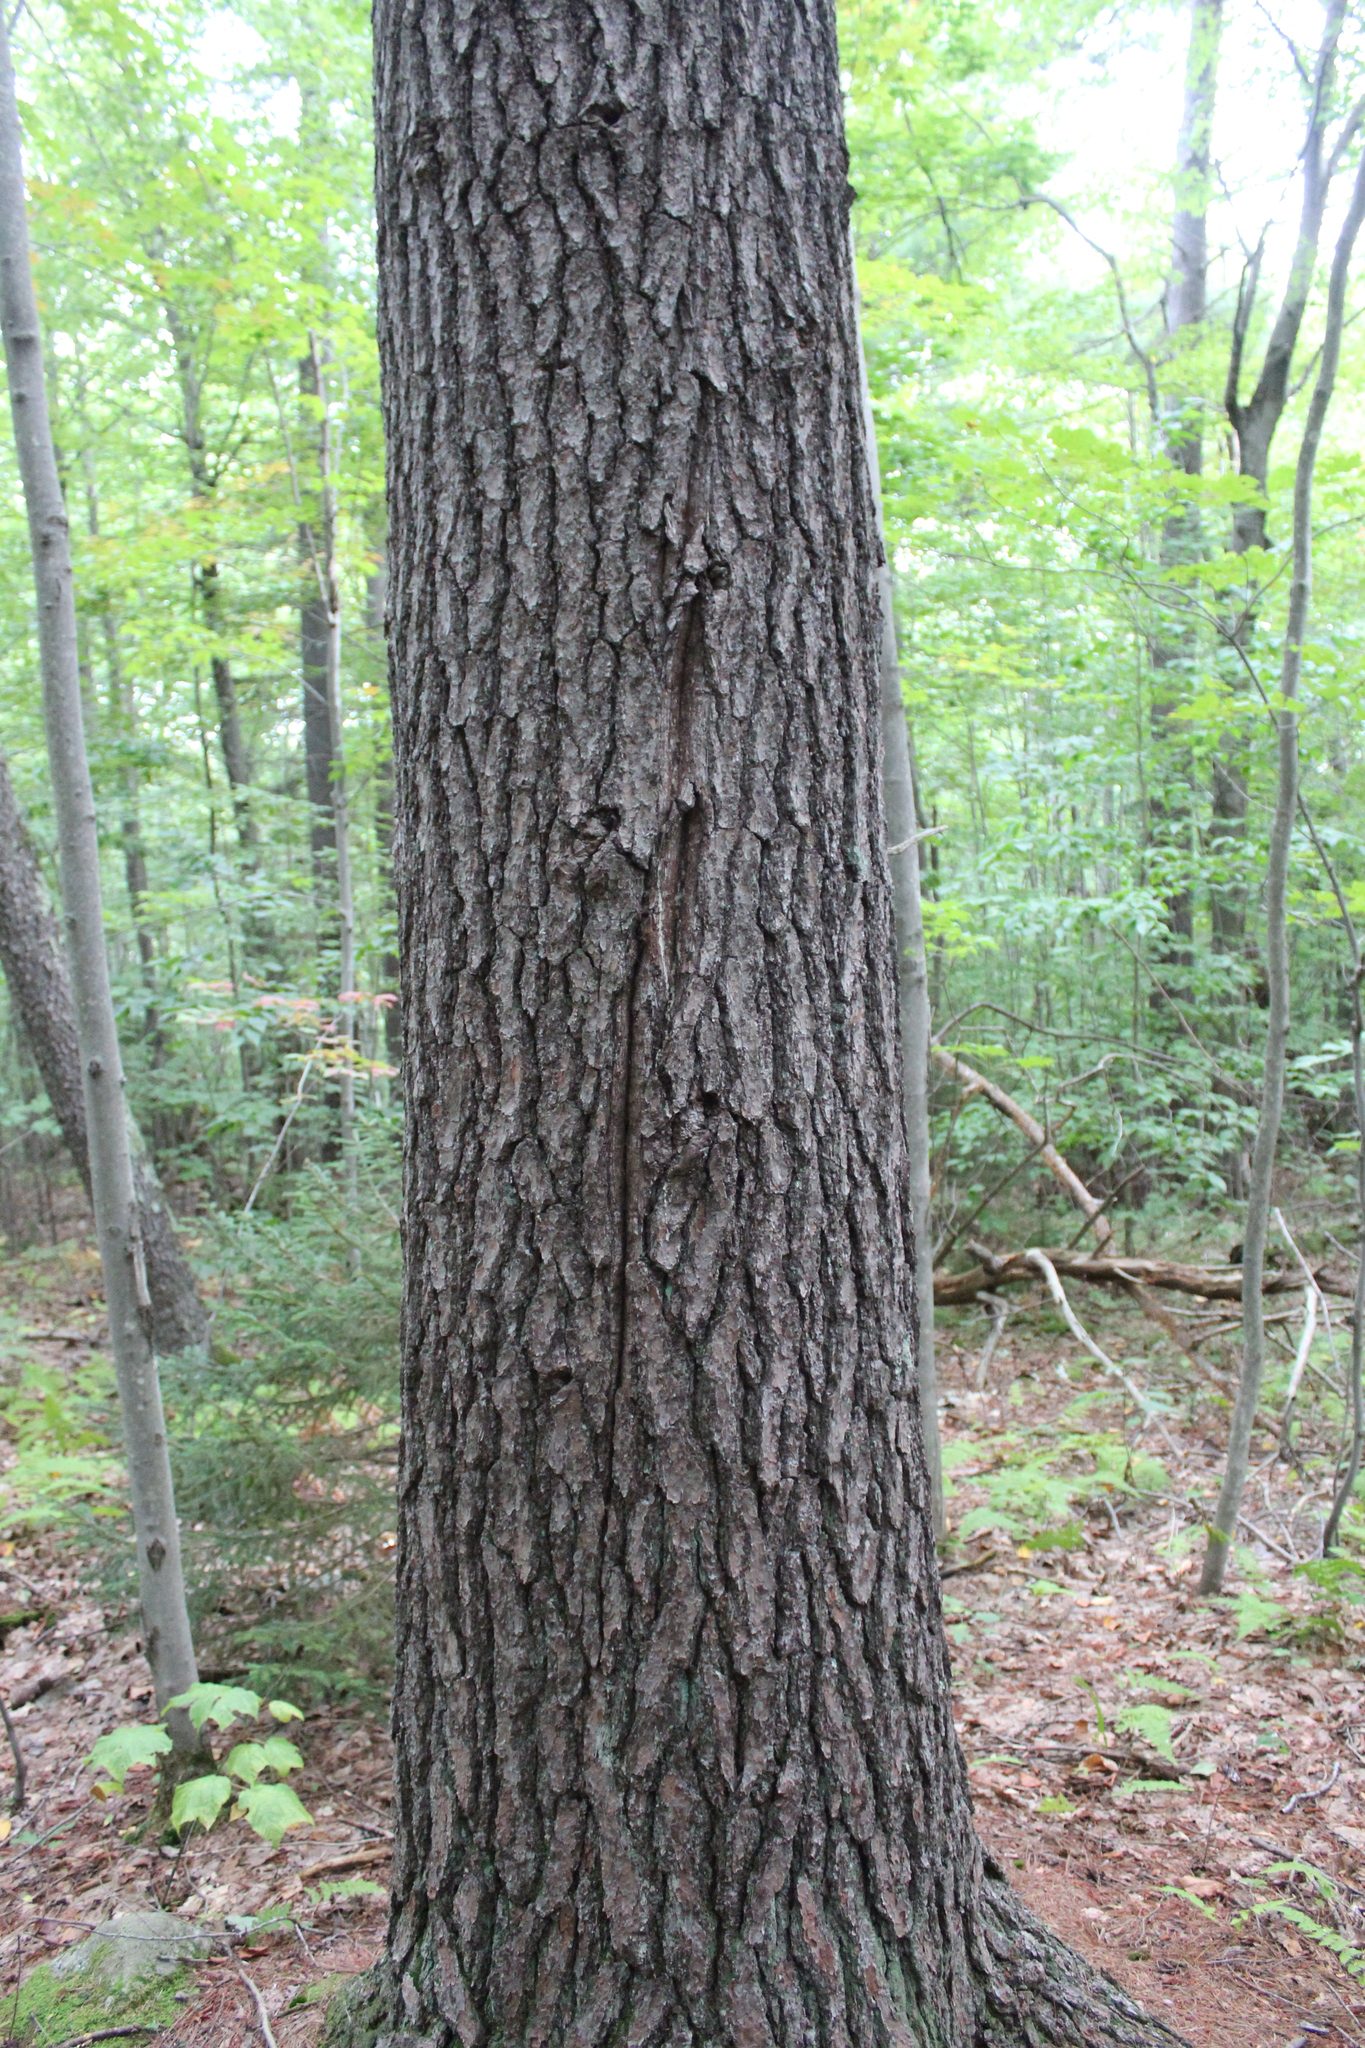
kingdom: Plantae
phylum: Tracheophyta
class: Pinopsida
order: Pinales
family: Pinaceae
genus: Pinus
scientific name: Pinus strobus
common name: Weymouth pine
